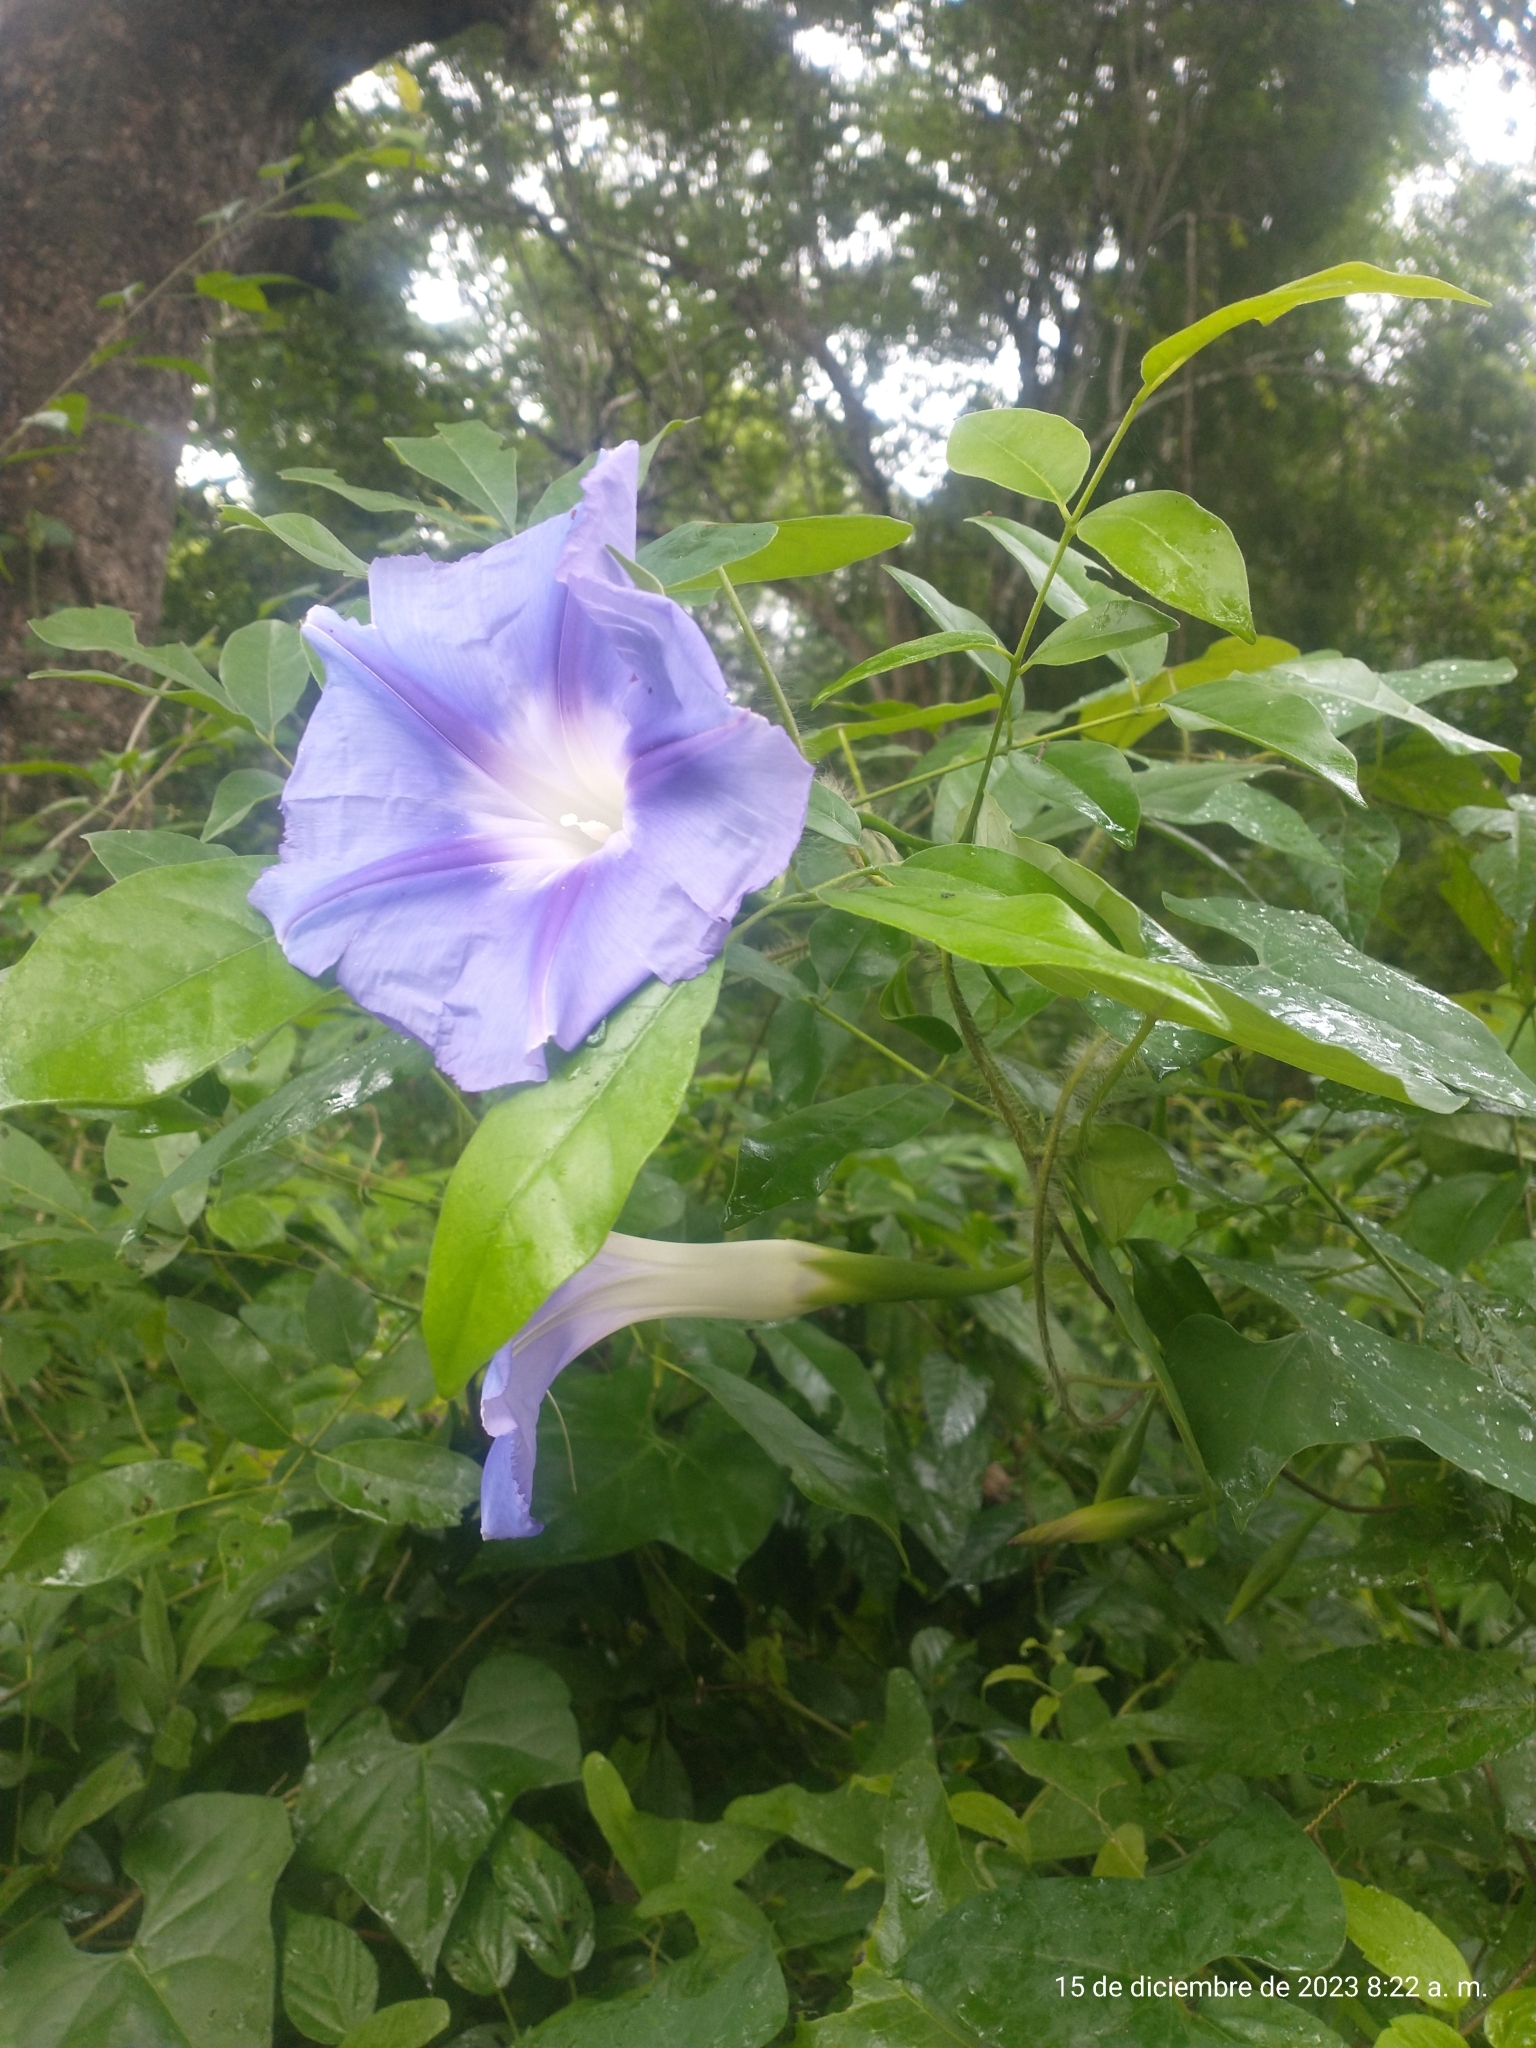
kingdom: Plantae
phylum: Tracheophyta
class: Magnoliopsida
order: Solanales
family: Convolvulaceae
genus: Ipomoea
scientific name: Ipomoea clavata
